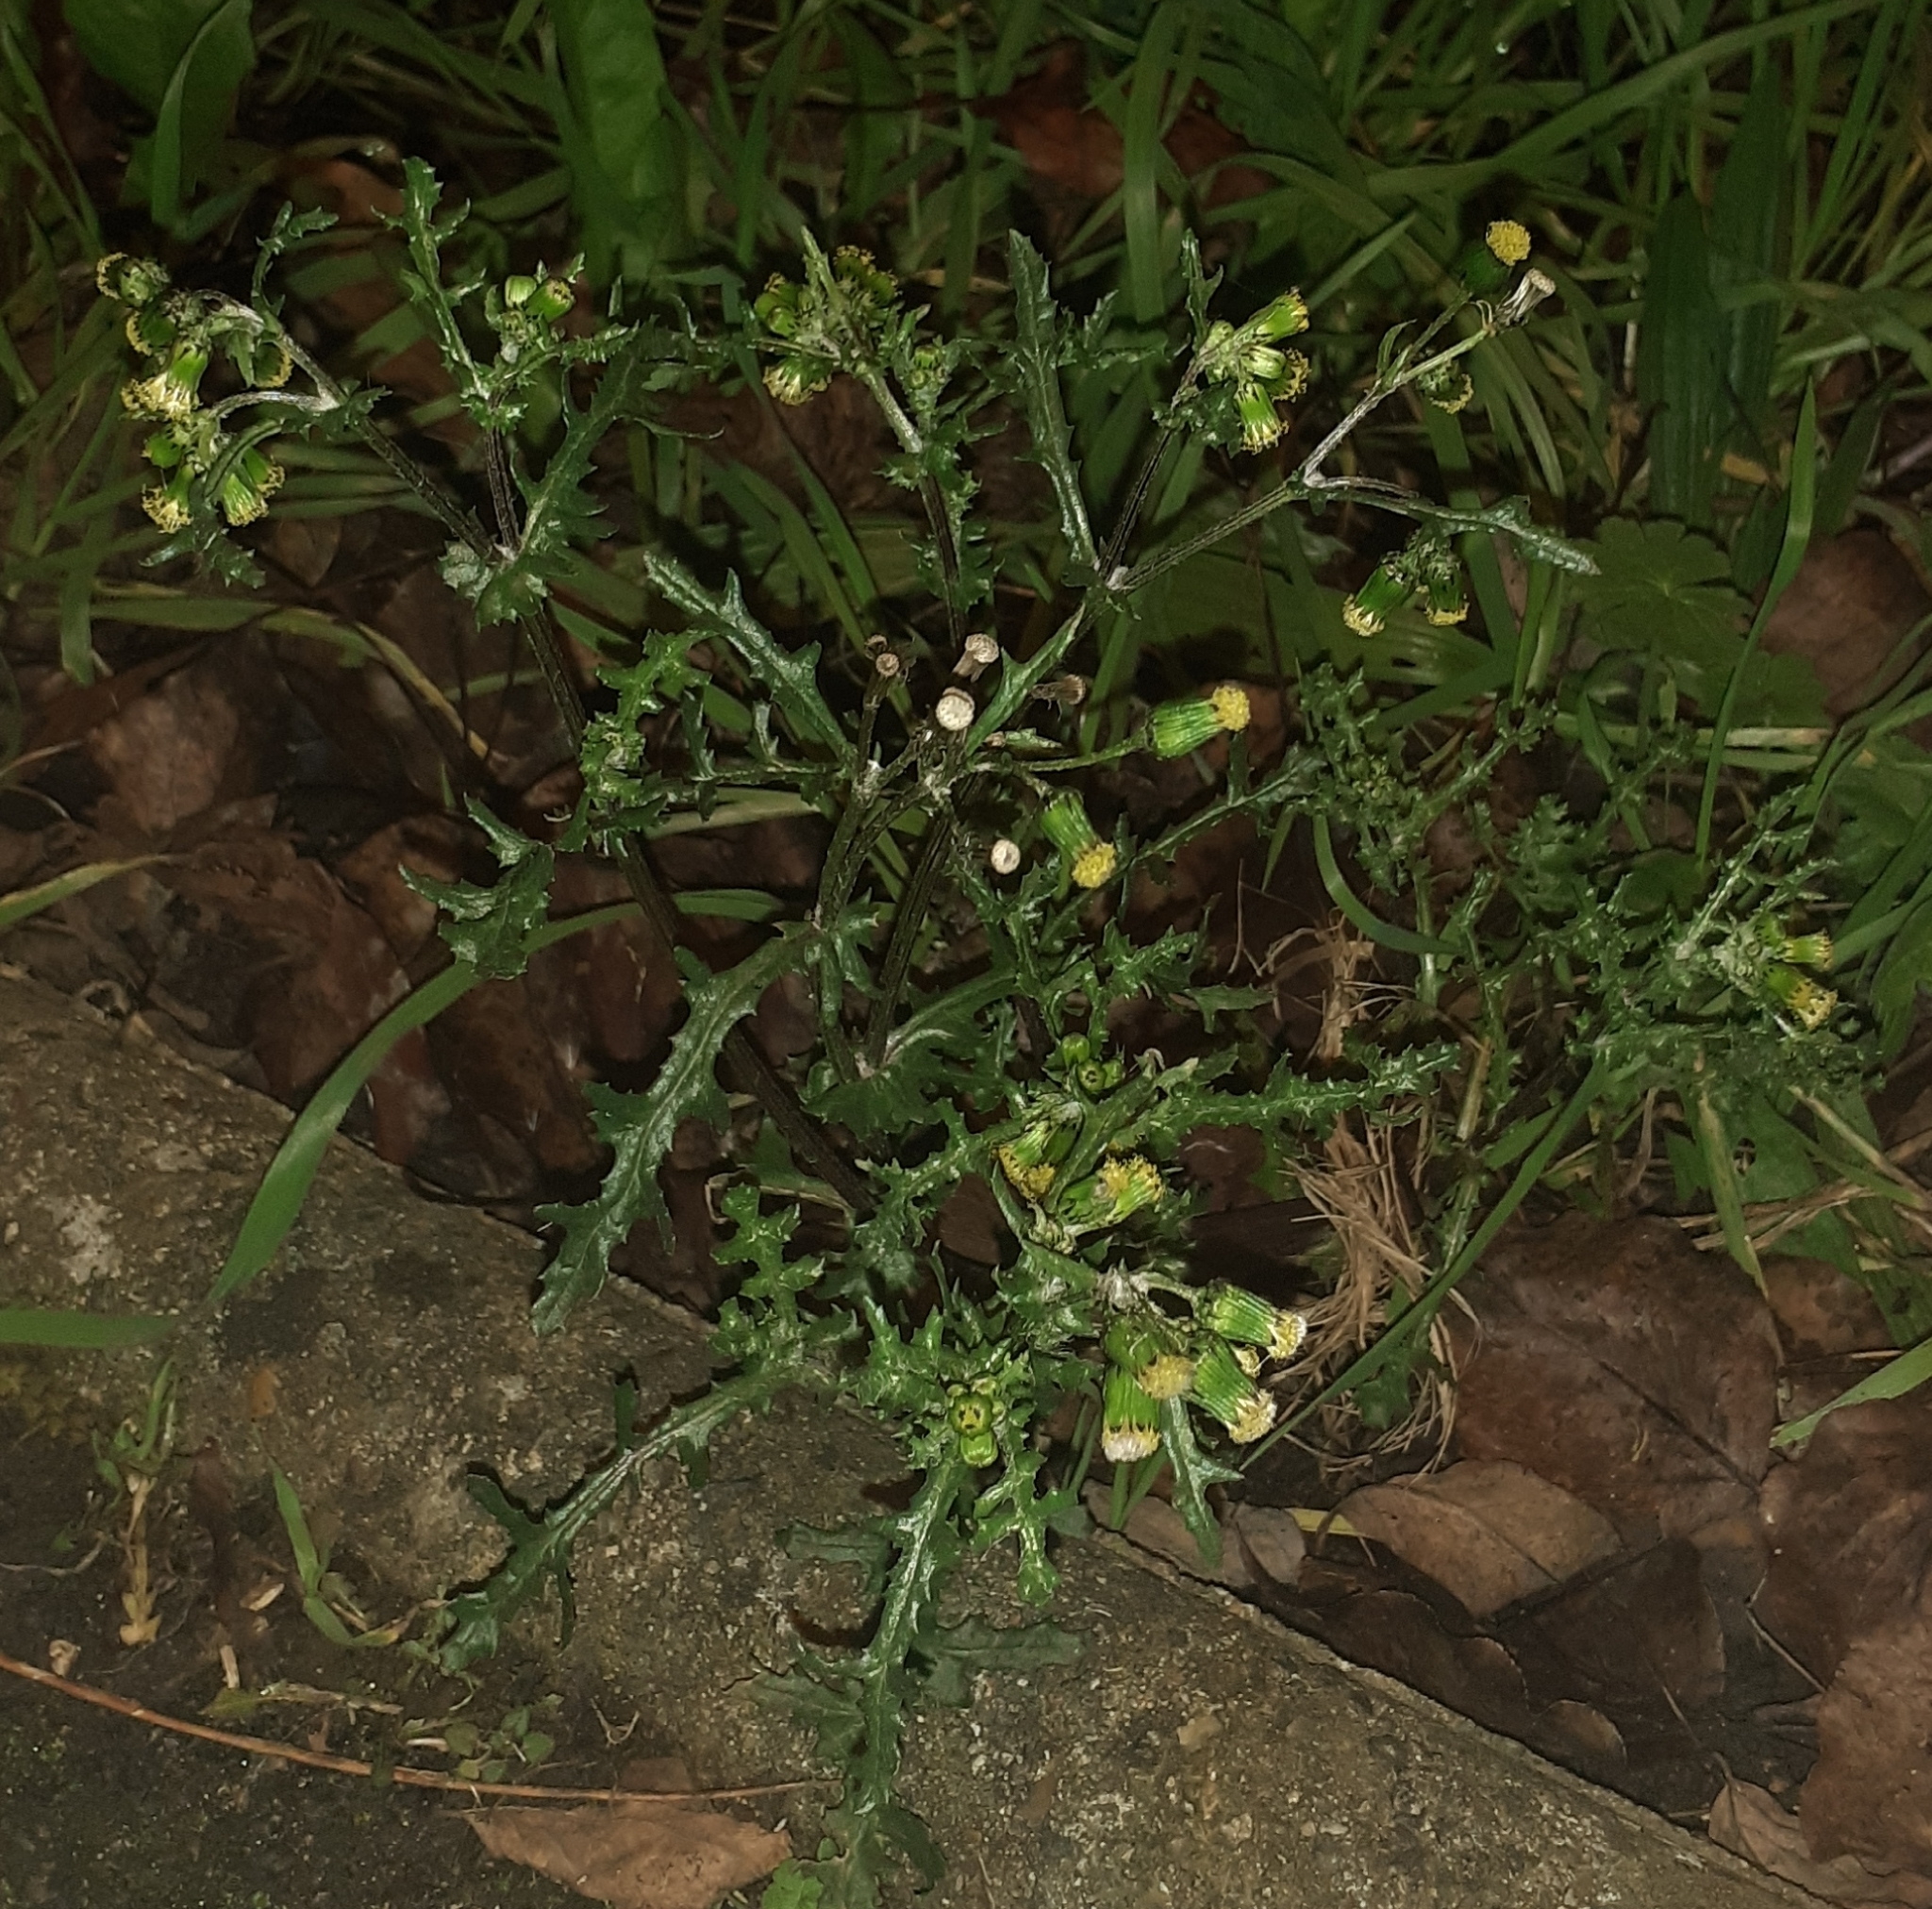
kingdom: Plantae
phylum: Tracheophyta
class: Magnoliopsida
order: Asterales
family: Asteraceae
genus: Senecio
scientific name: Senecio vulgaris
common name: Old-man-in-the-spring
